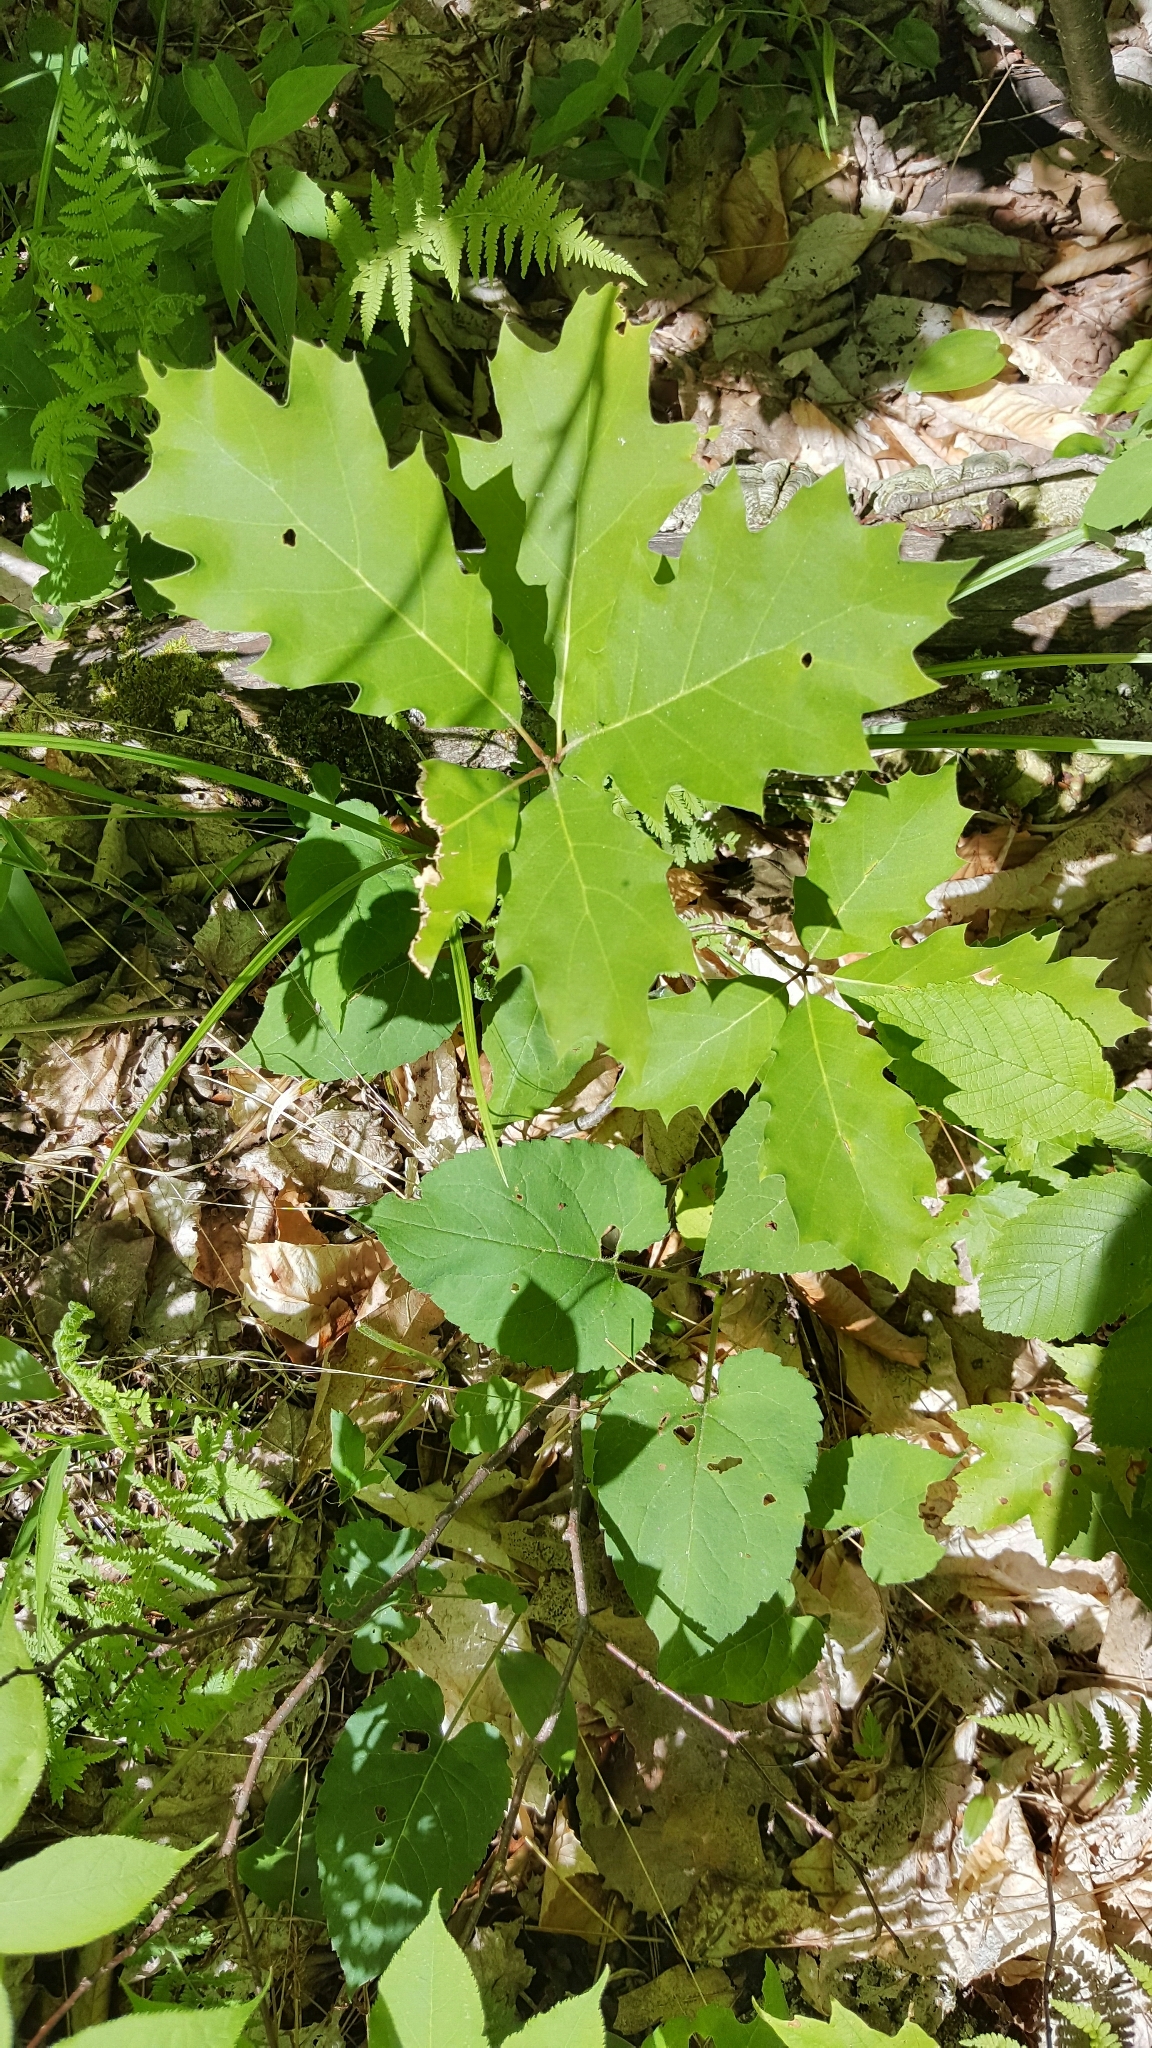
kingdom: Plantae
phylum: Tracheophyta
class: Magnoliopsida
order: Fagales
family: Fagaceae
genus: Quercus
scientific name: Quercus rubra
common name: Red oak
